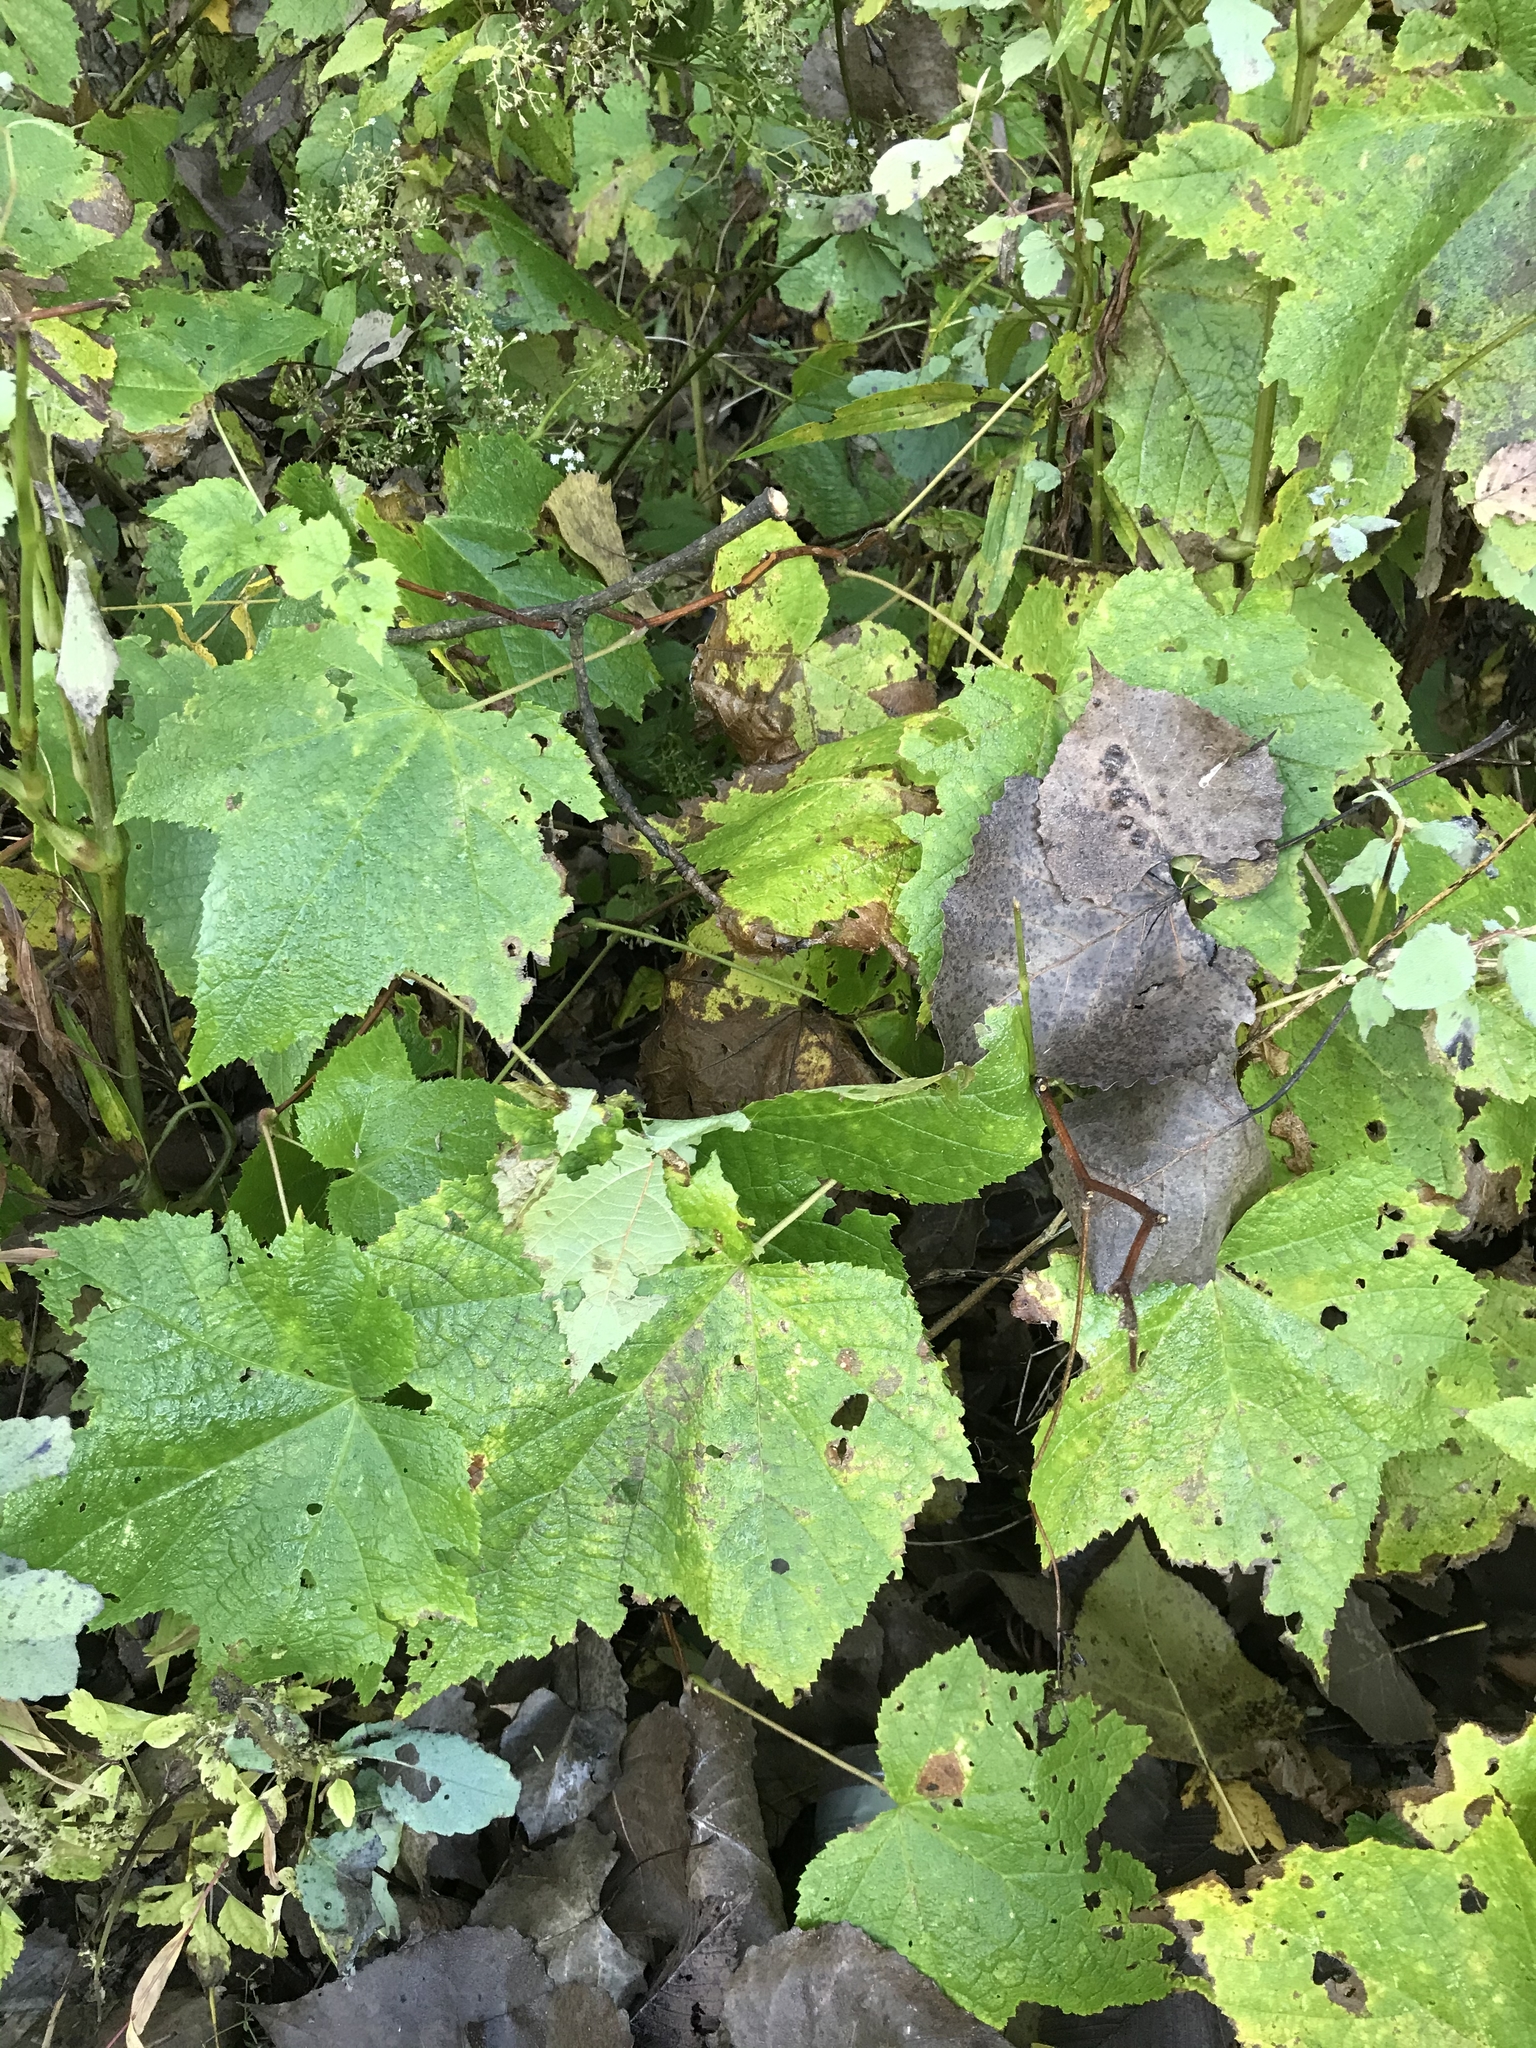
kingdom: Plantae
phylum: Tracheophyta
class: Magnoliopsida
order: Rosales
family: Rosaceae
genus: Rubus
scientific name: Rubus odoratus
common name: Purple-flowered raspberry
